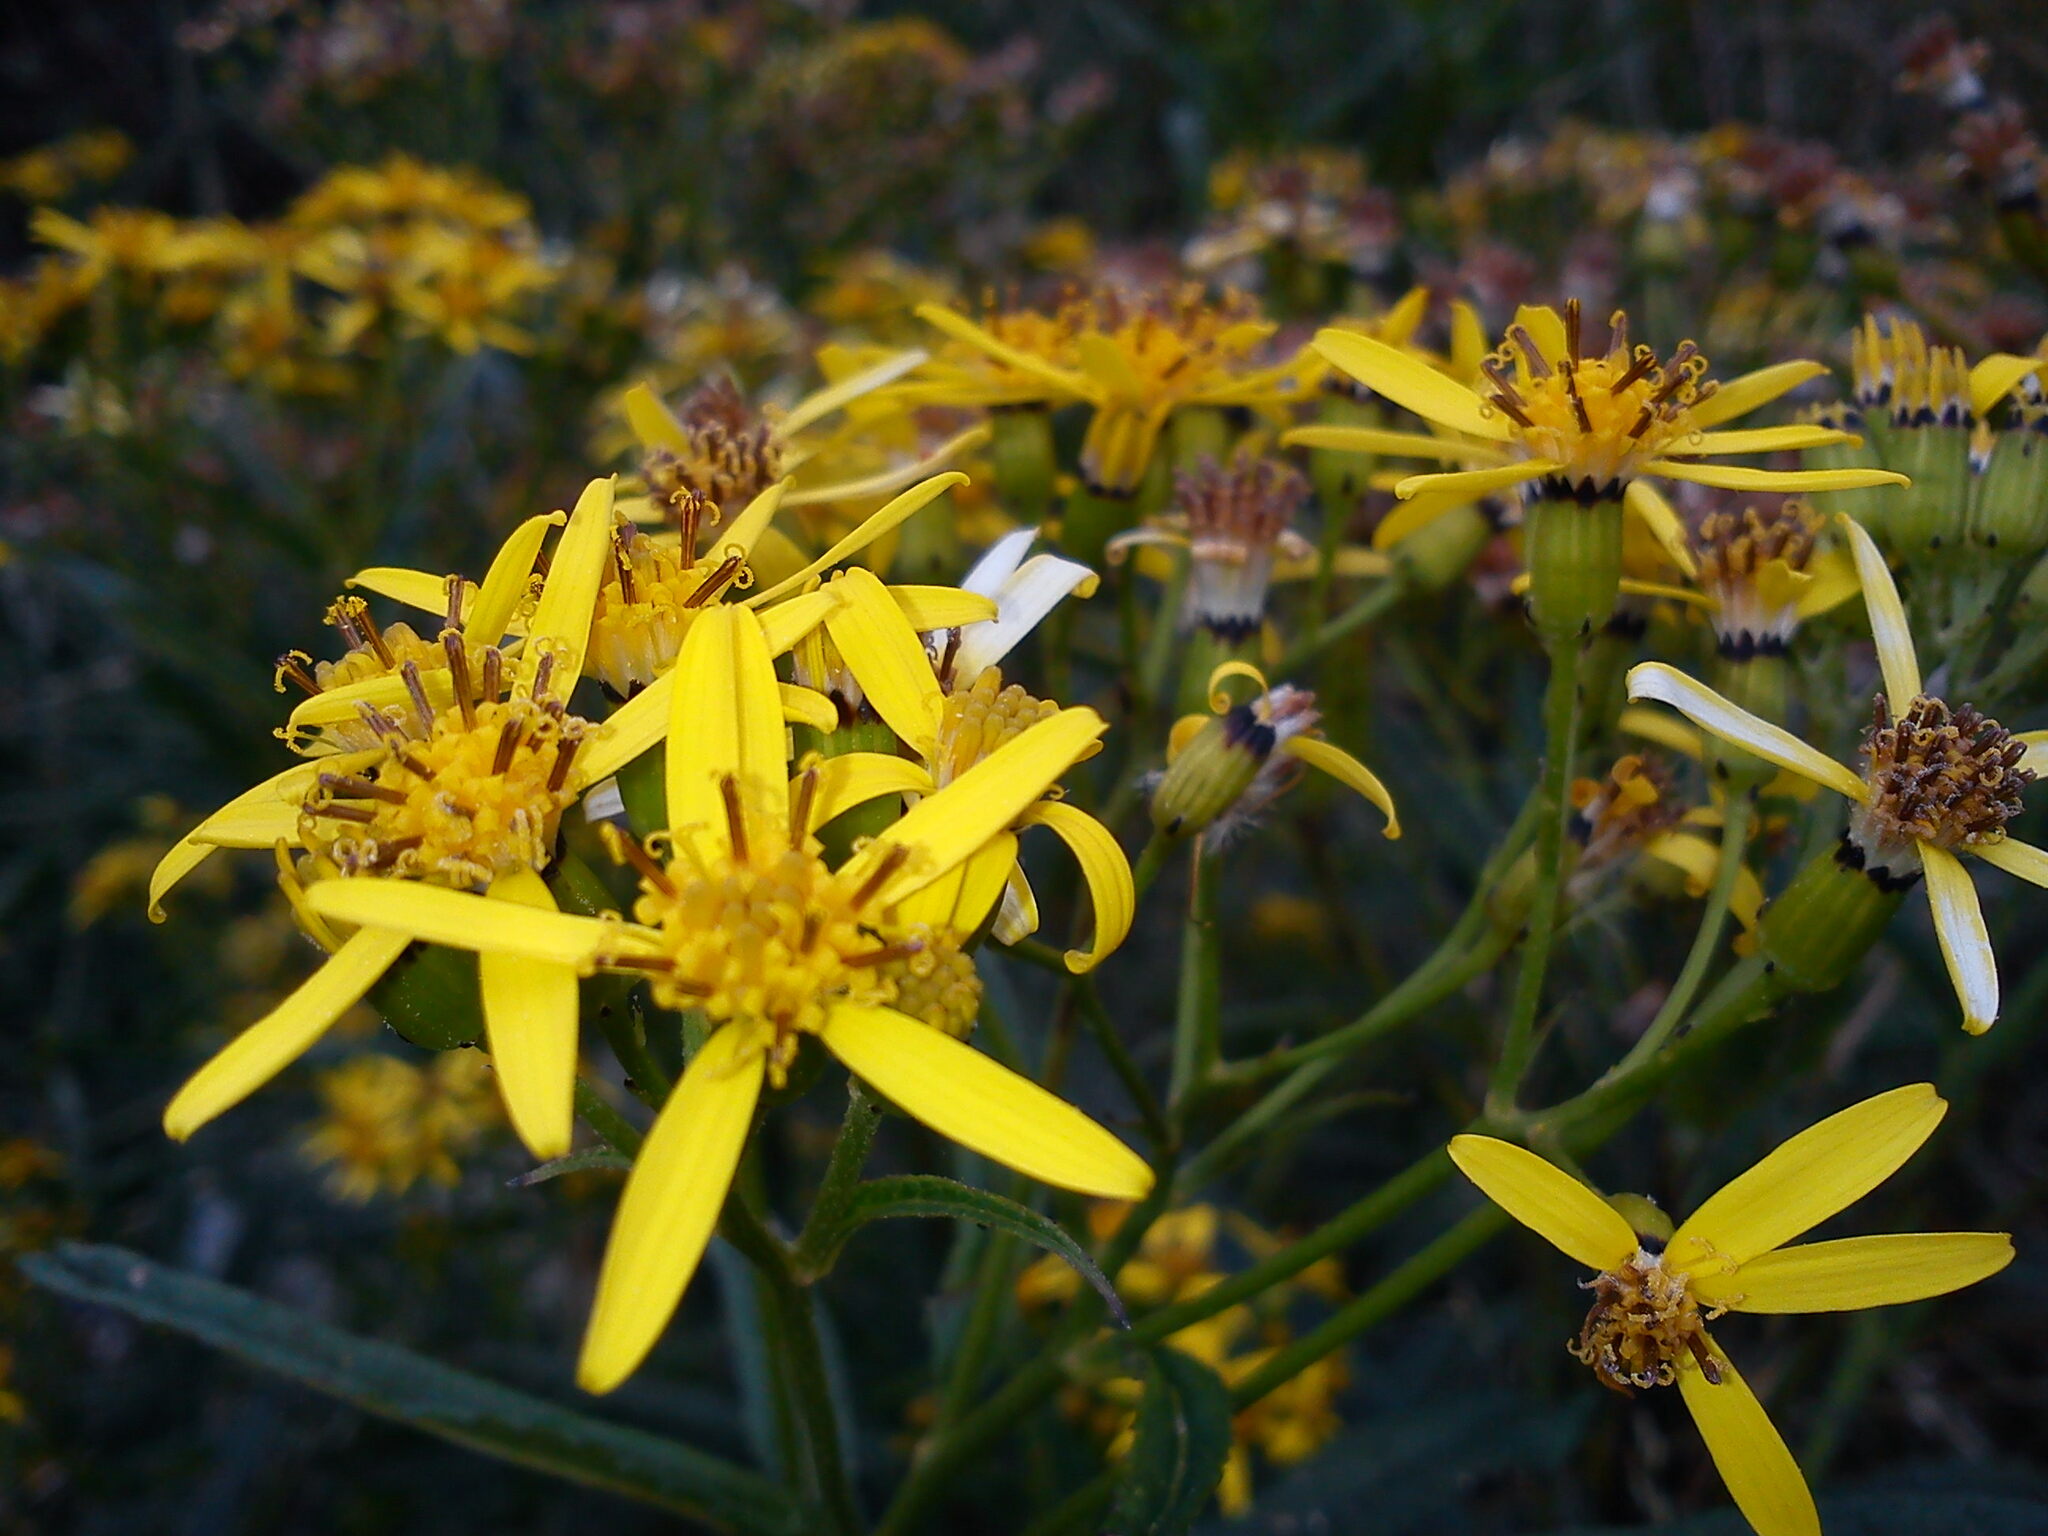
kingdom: Plantae
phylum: Tracheophyta
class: Magnoliopsida
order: Asterales
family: Asteraceae
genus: Senecio
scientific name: Senecio nemorensis
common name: Alpine ragwort
